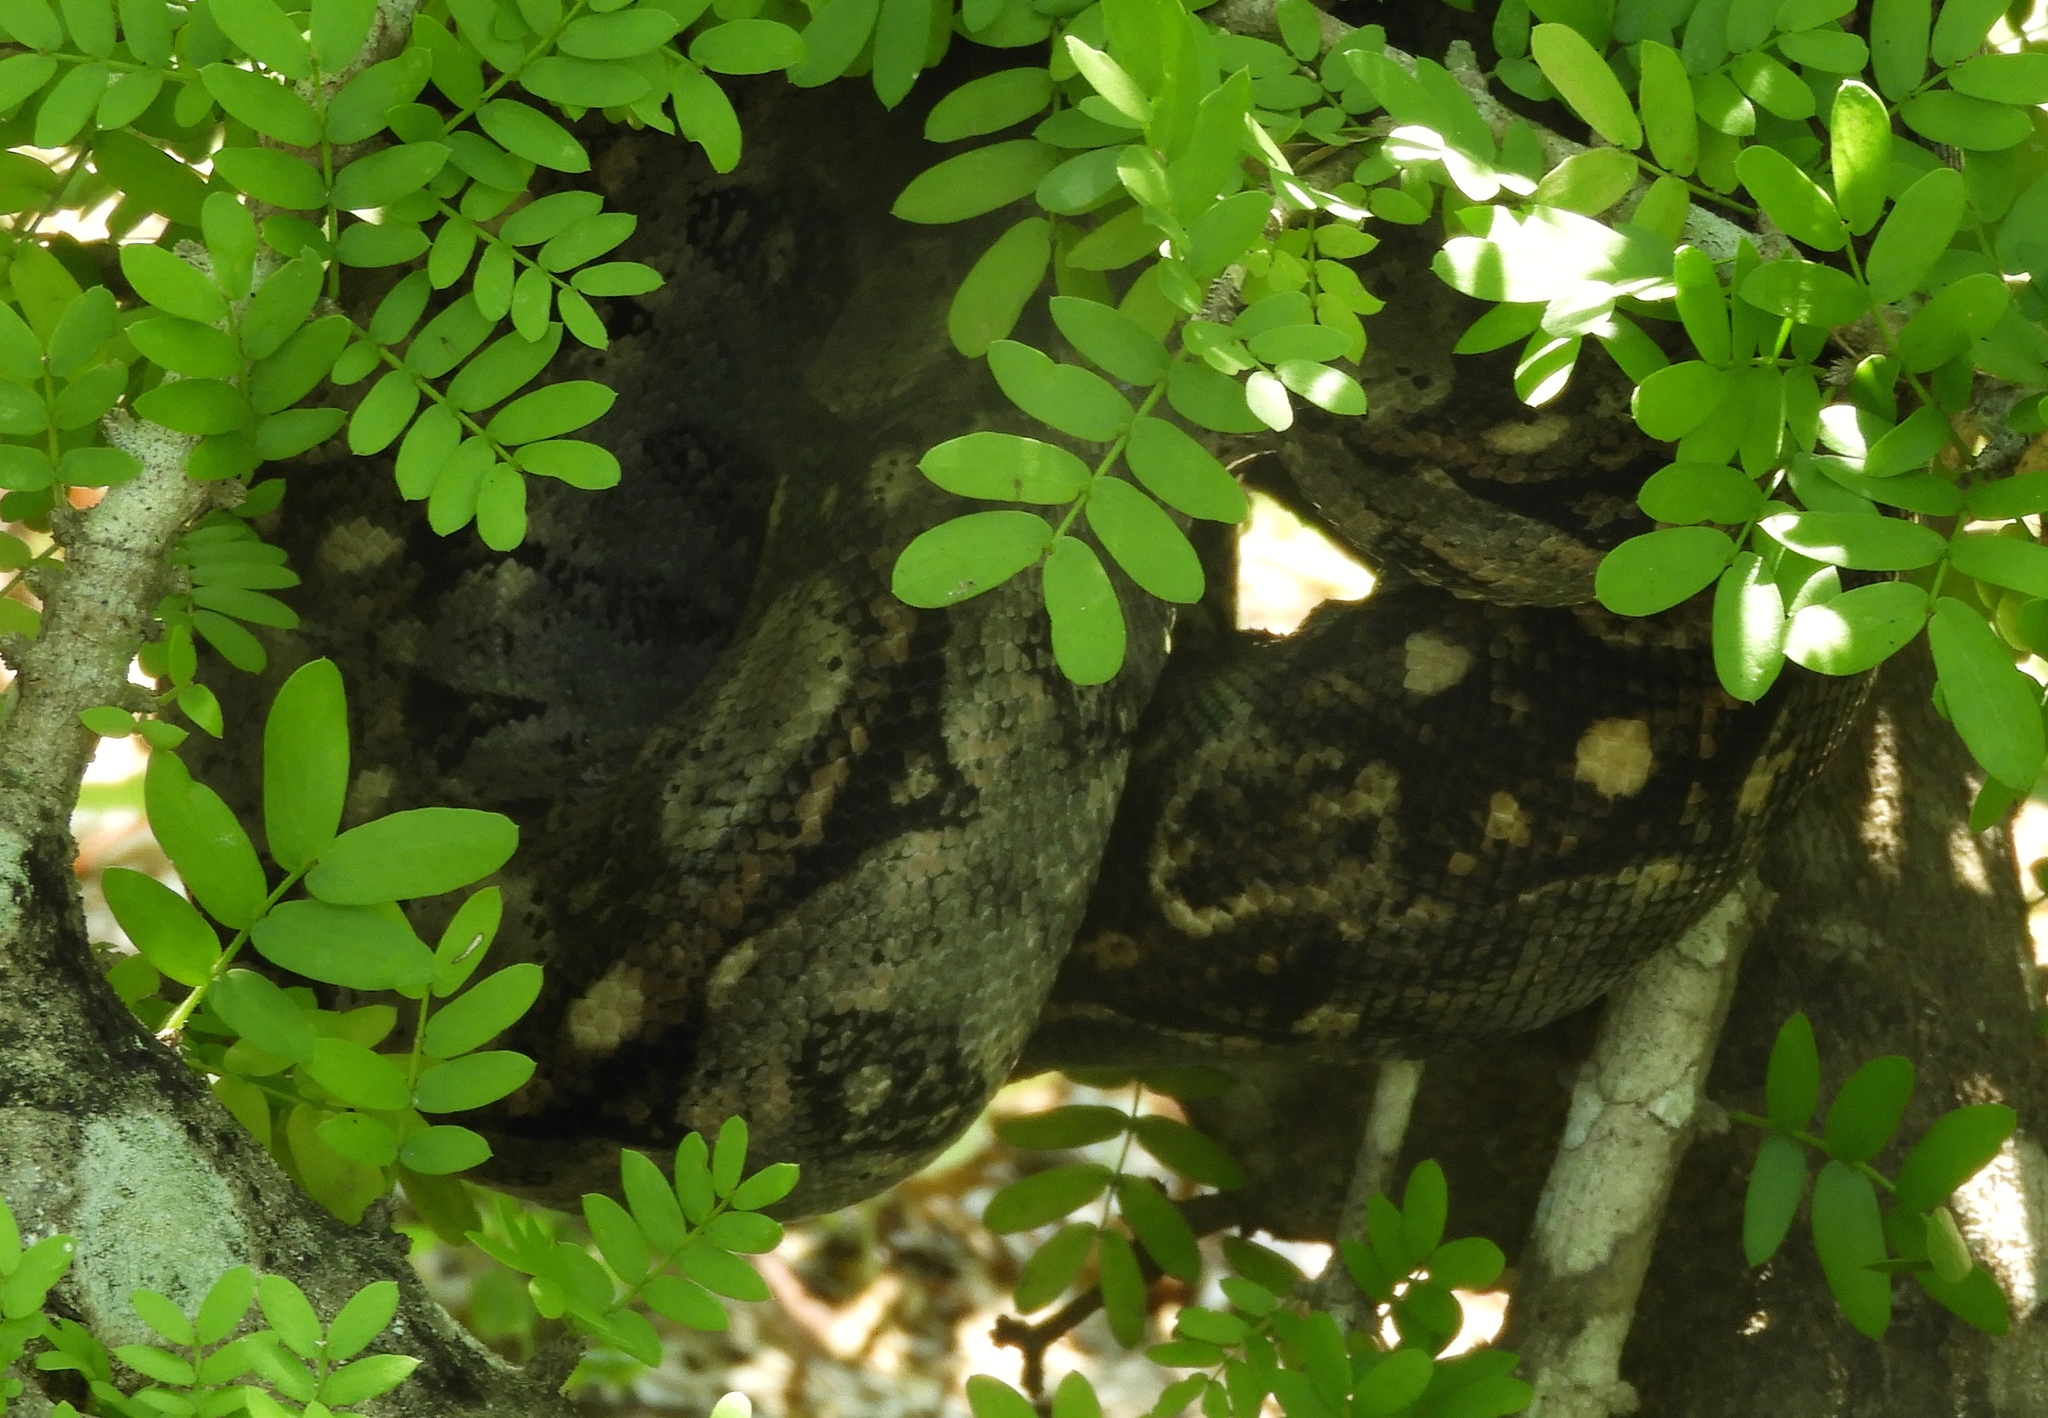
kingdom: Animalia
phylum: Chordata
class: Squamata
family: Boidae
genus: Boa
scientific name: Boa
